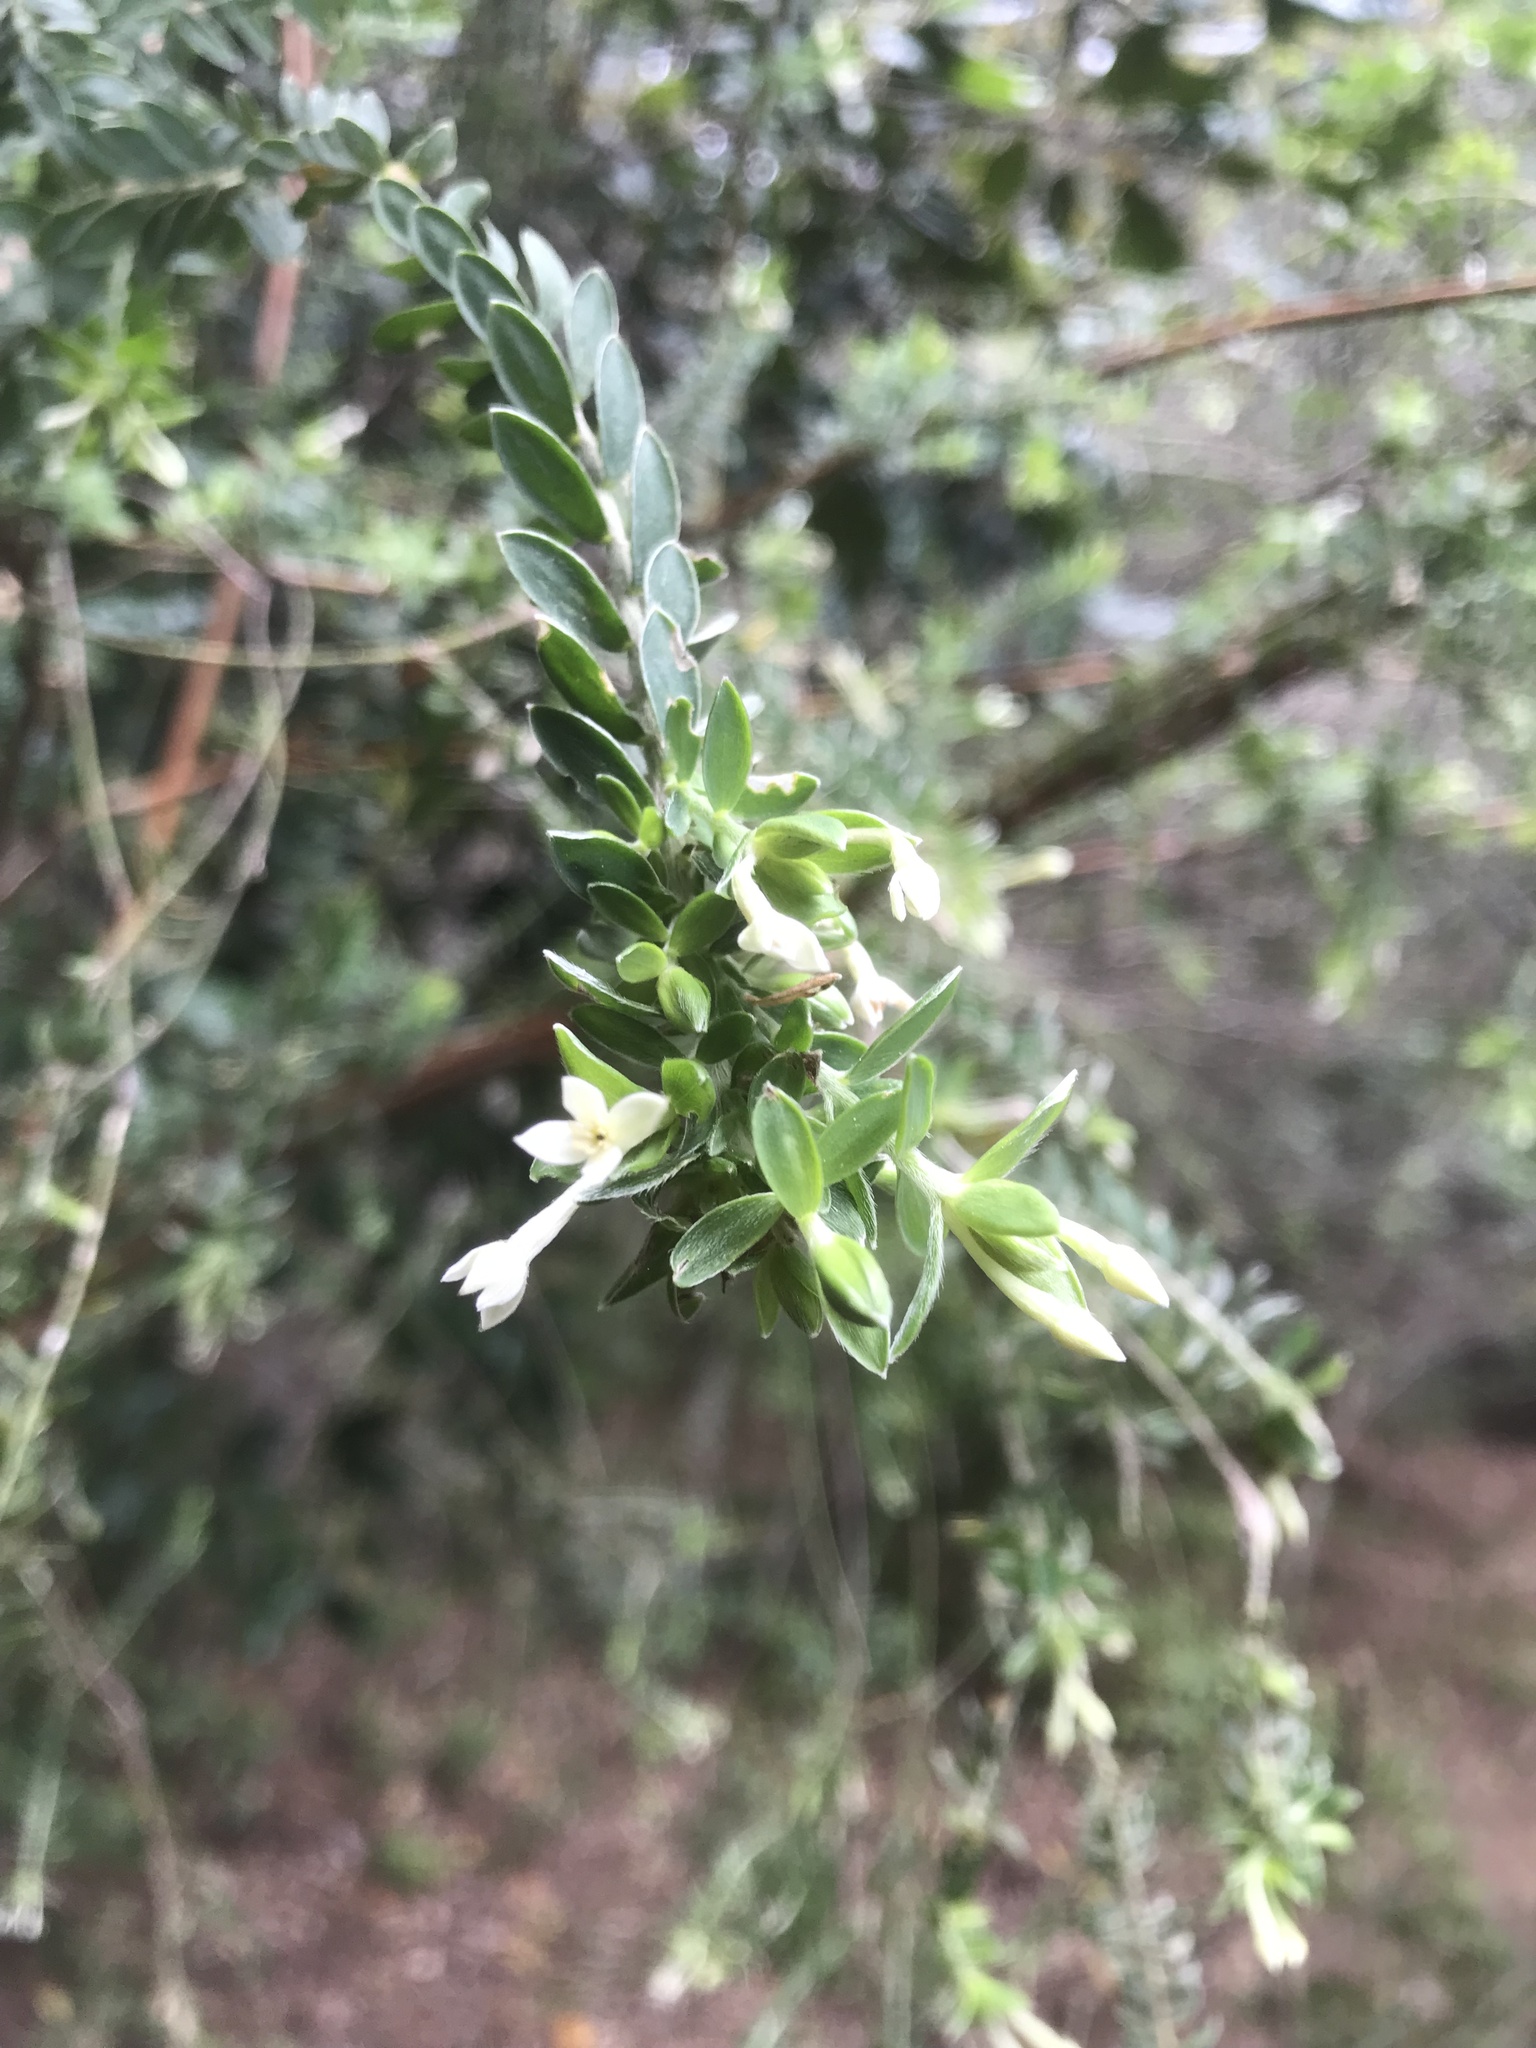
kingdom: Plantae
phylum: Tracheophyta
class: Magnoliopsida
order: Malvales
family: Thymelaeaceae
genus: Gnidia
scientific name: Gnidia sericea
